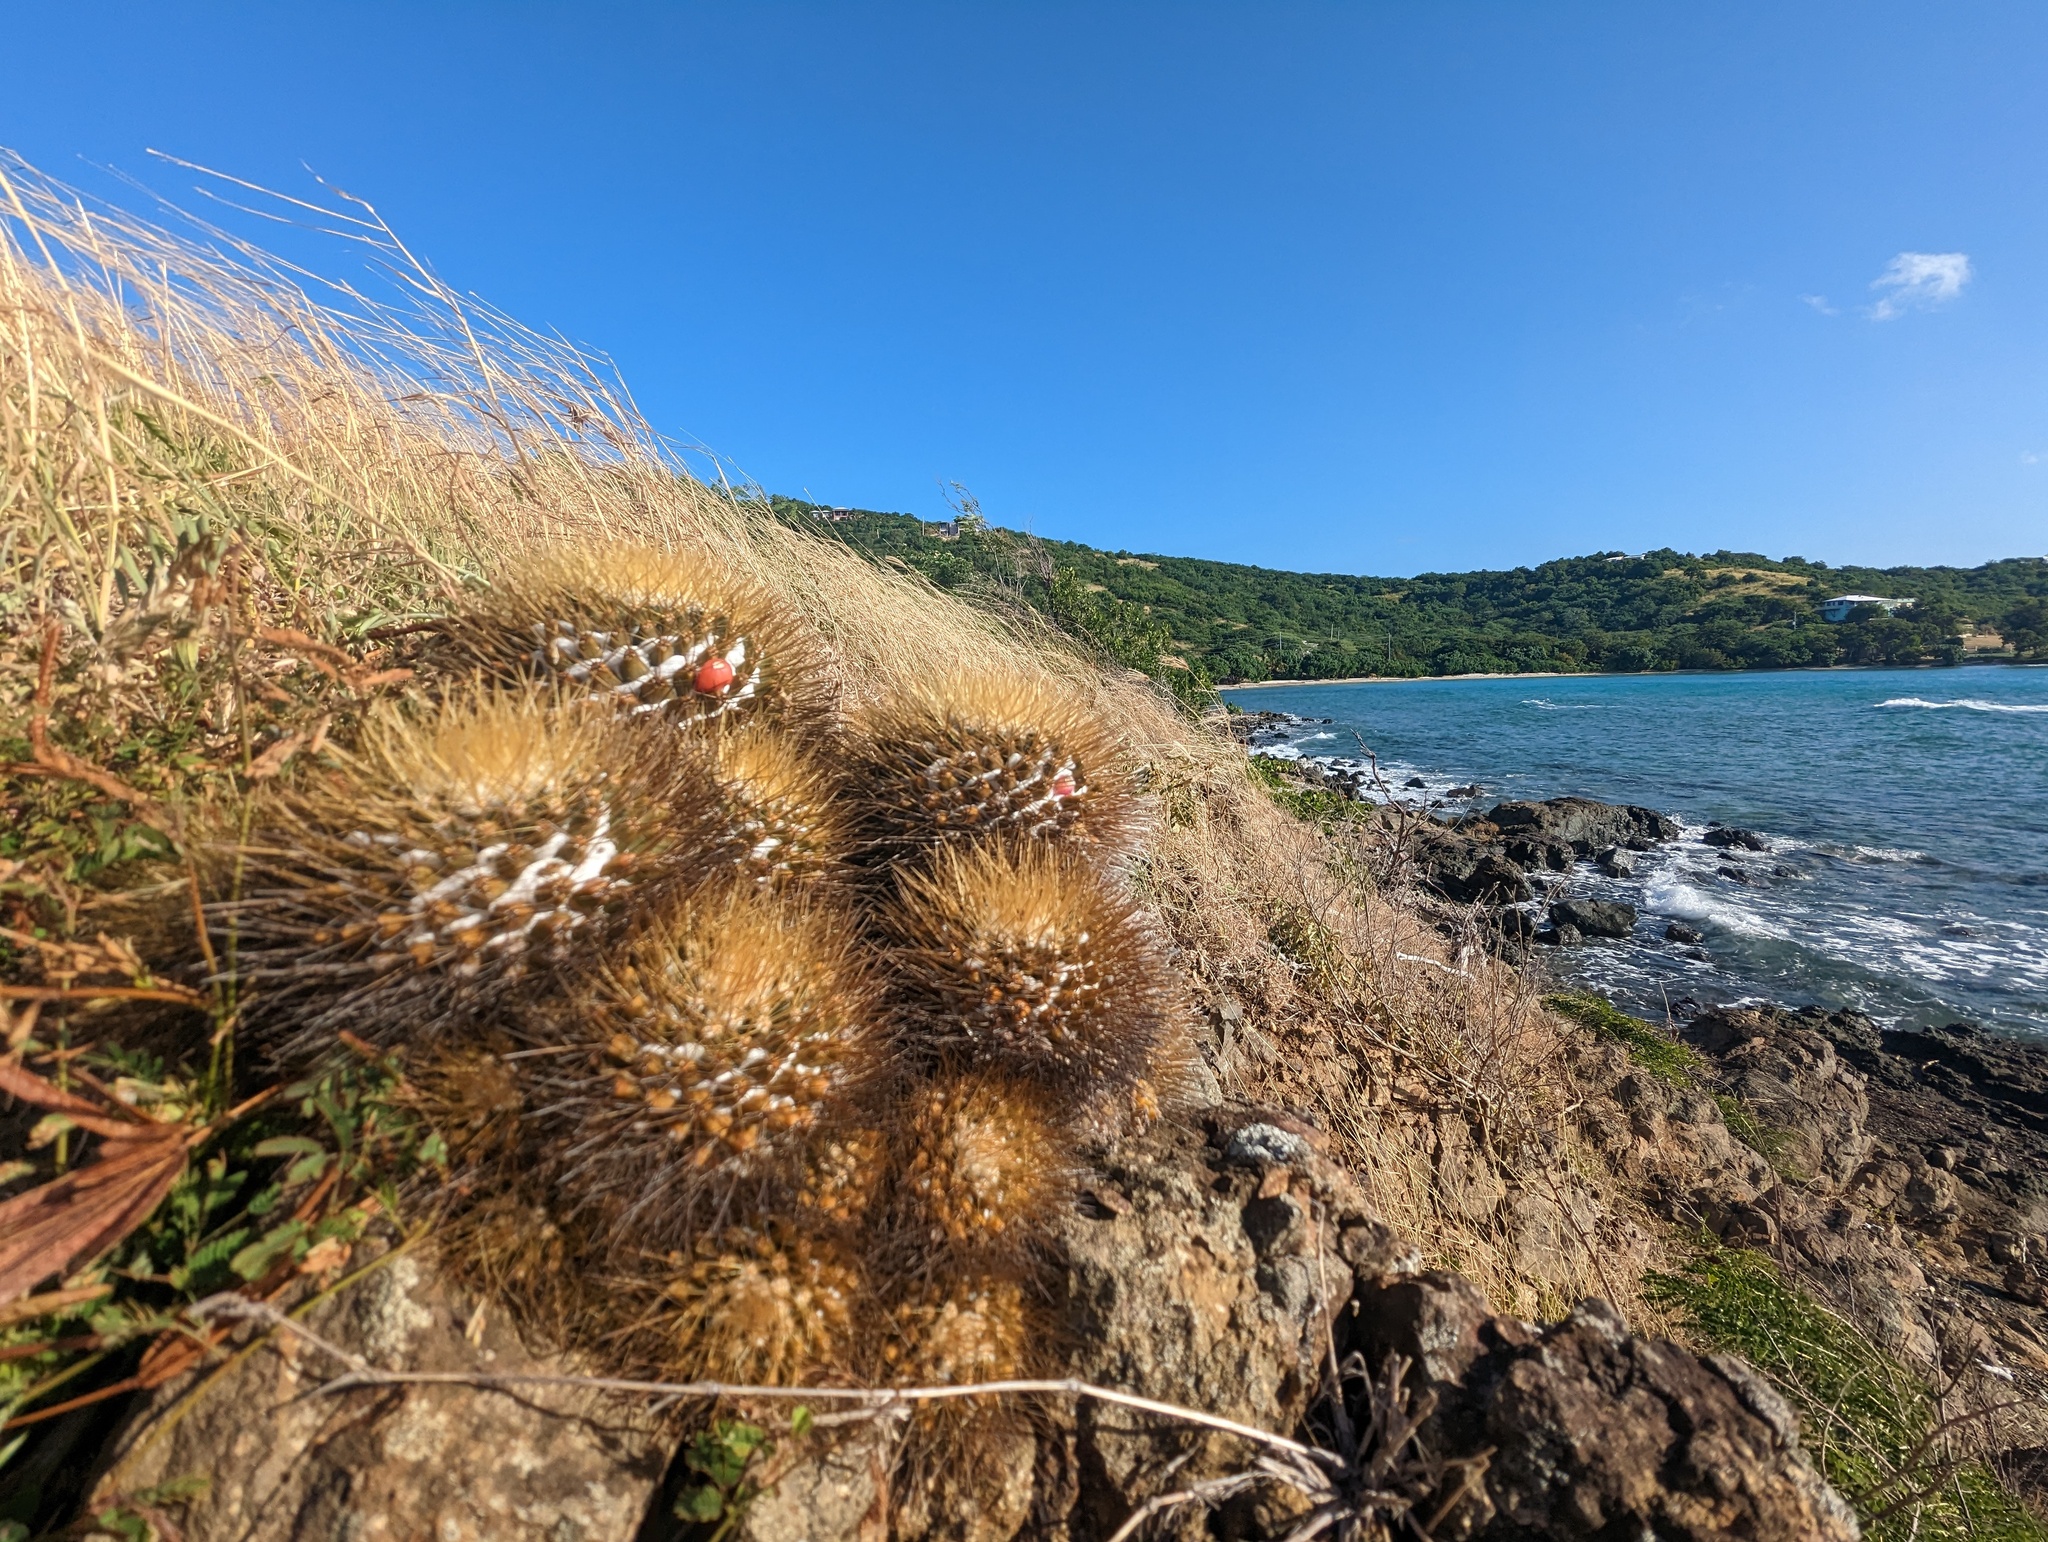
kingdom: Plantae
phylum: Tracheophyta
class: Magnoliopsida
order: Caryophyllales
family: Cactaceae
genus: Mammillaria
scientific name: Mammillaria nivosa
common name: Woolly nipple cactus
